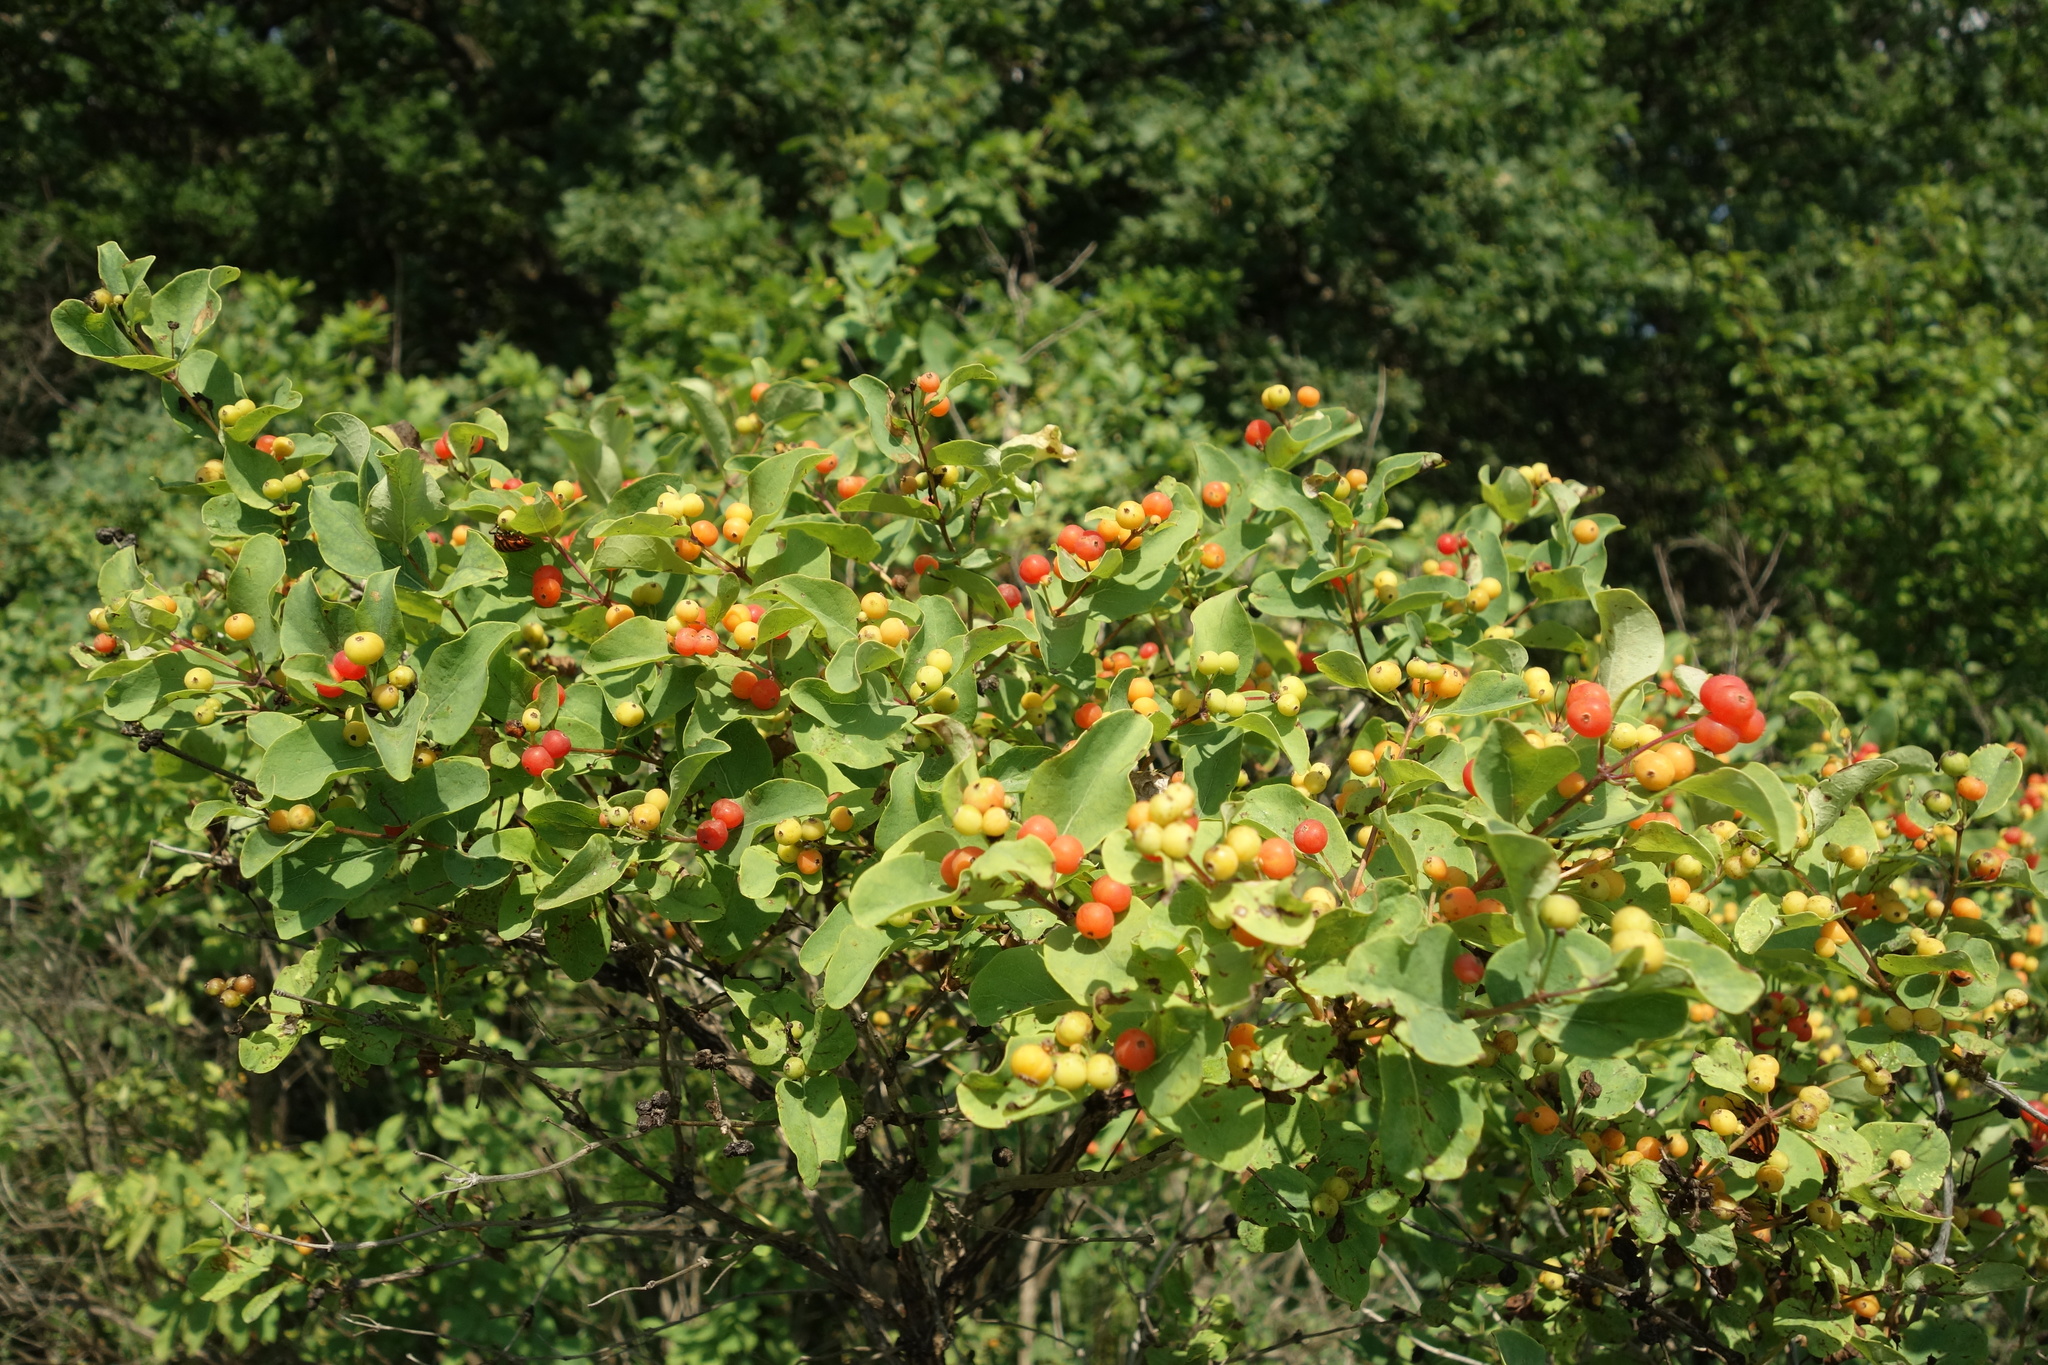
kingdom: Plantae
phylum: Tracheophyta
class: Magnoliopsida
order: Dipsacales
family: Caprifoliaceae
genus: Lonicera
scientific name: Lonicera tatarica
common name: Tatarian honeysuckle
